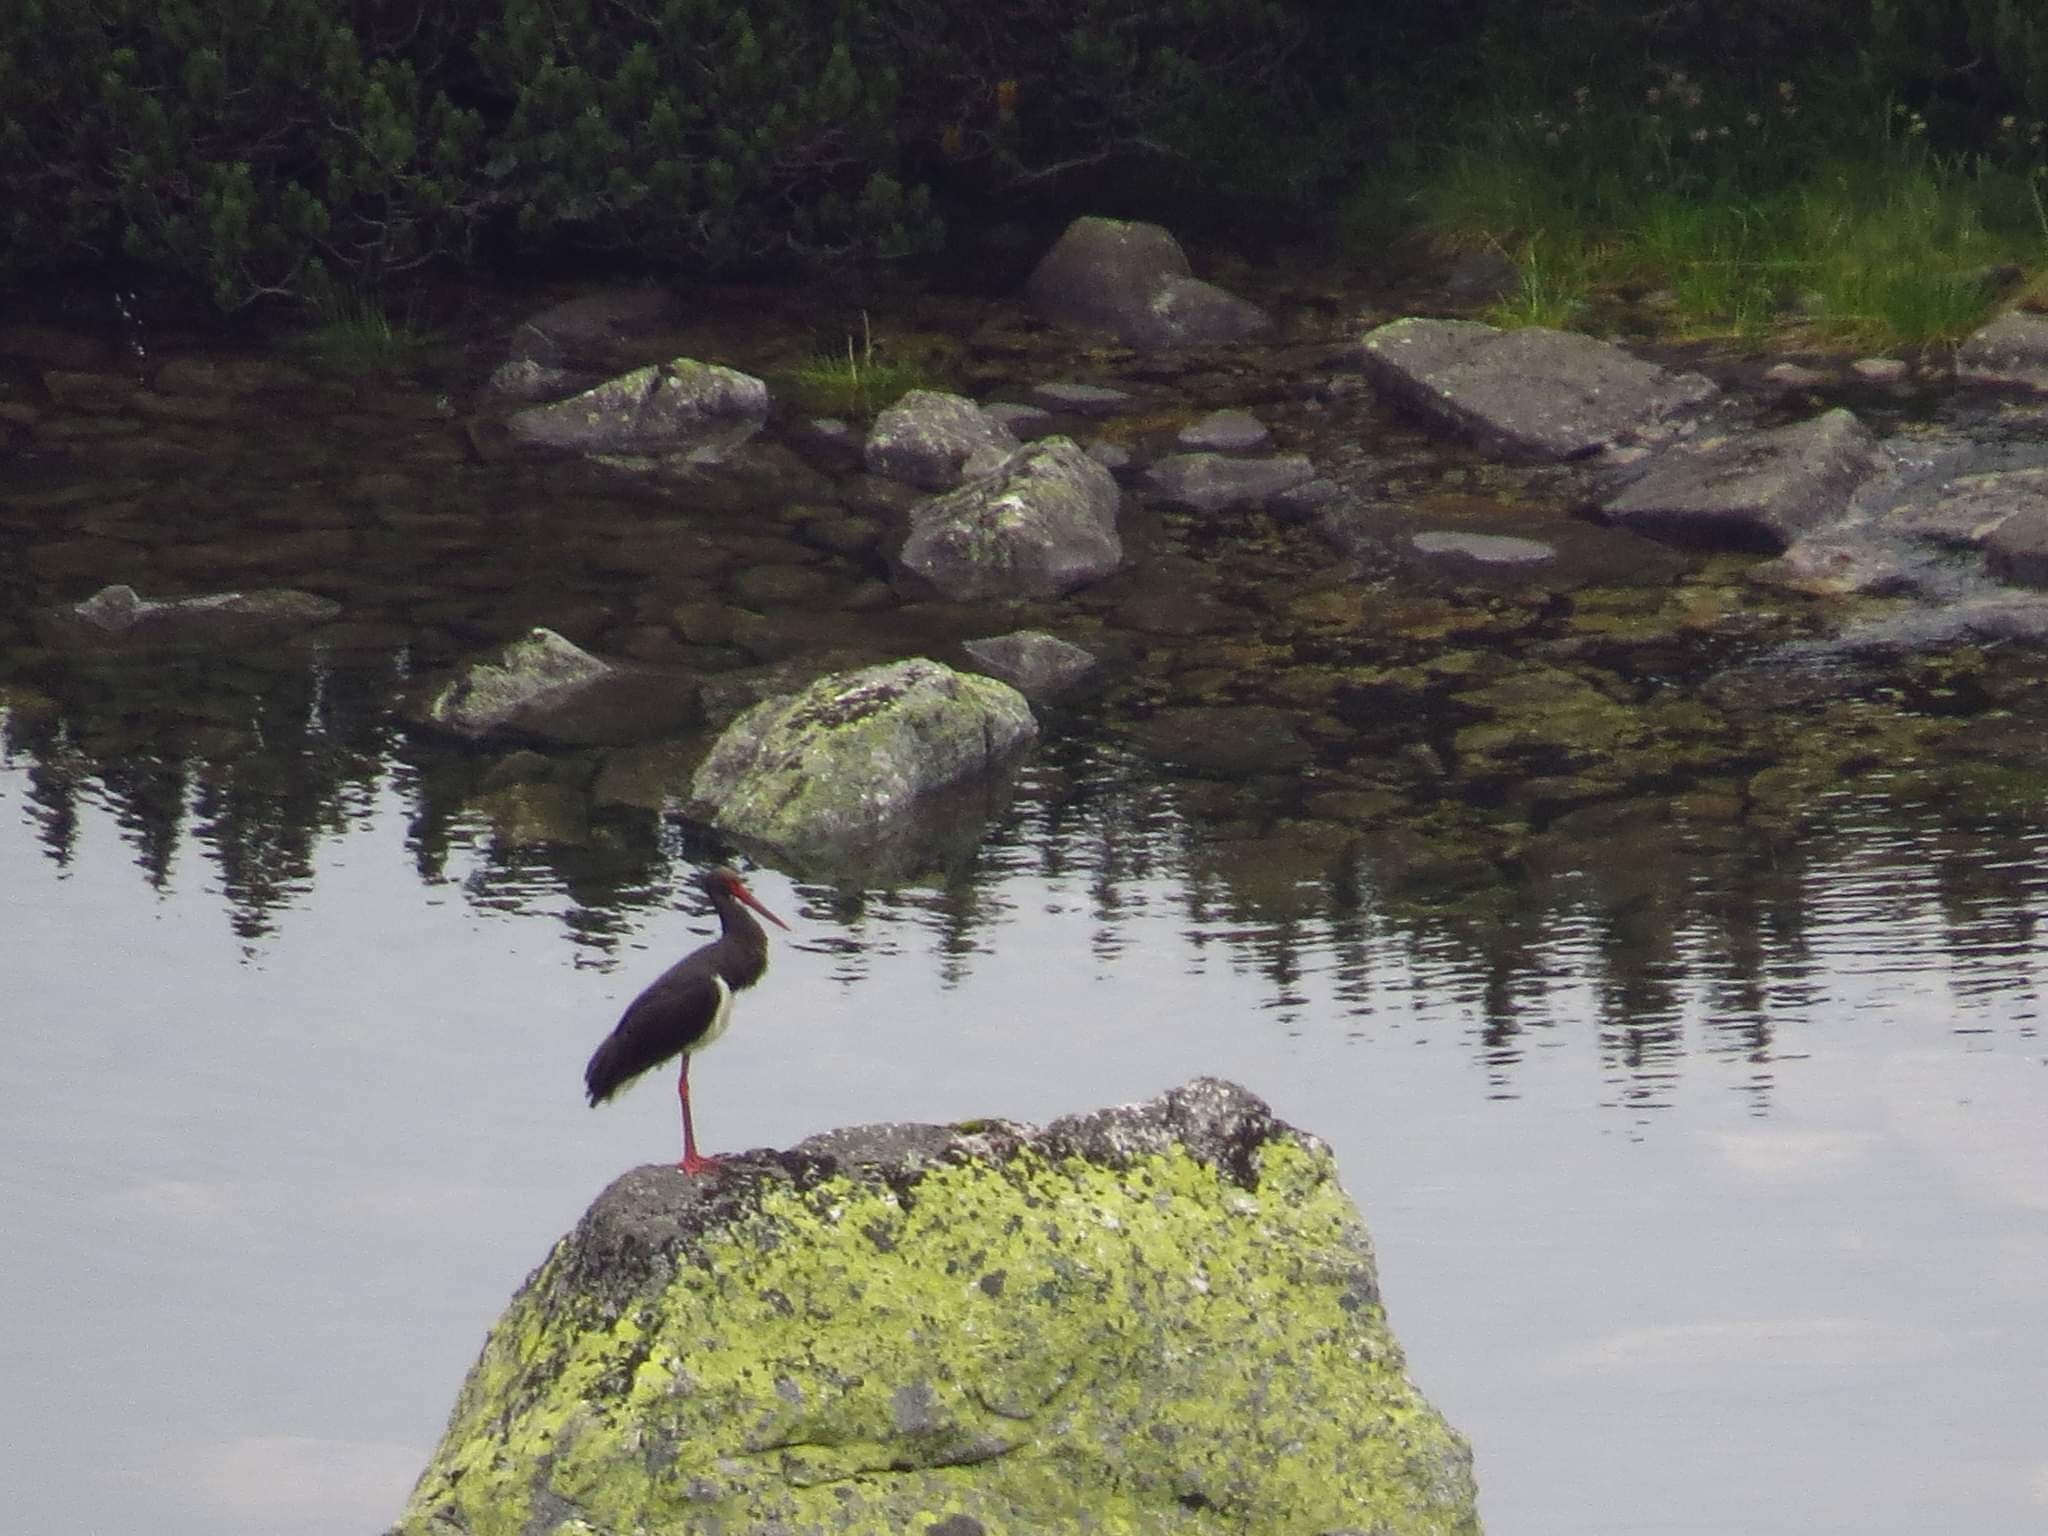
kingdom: Animalia
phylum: Chordata
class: Aves
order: Ciconiiformes
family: Ciconiidae
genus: Ciconia
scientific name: Ciconia nigra
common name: Black stork
